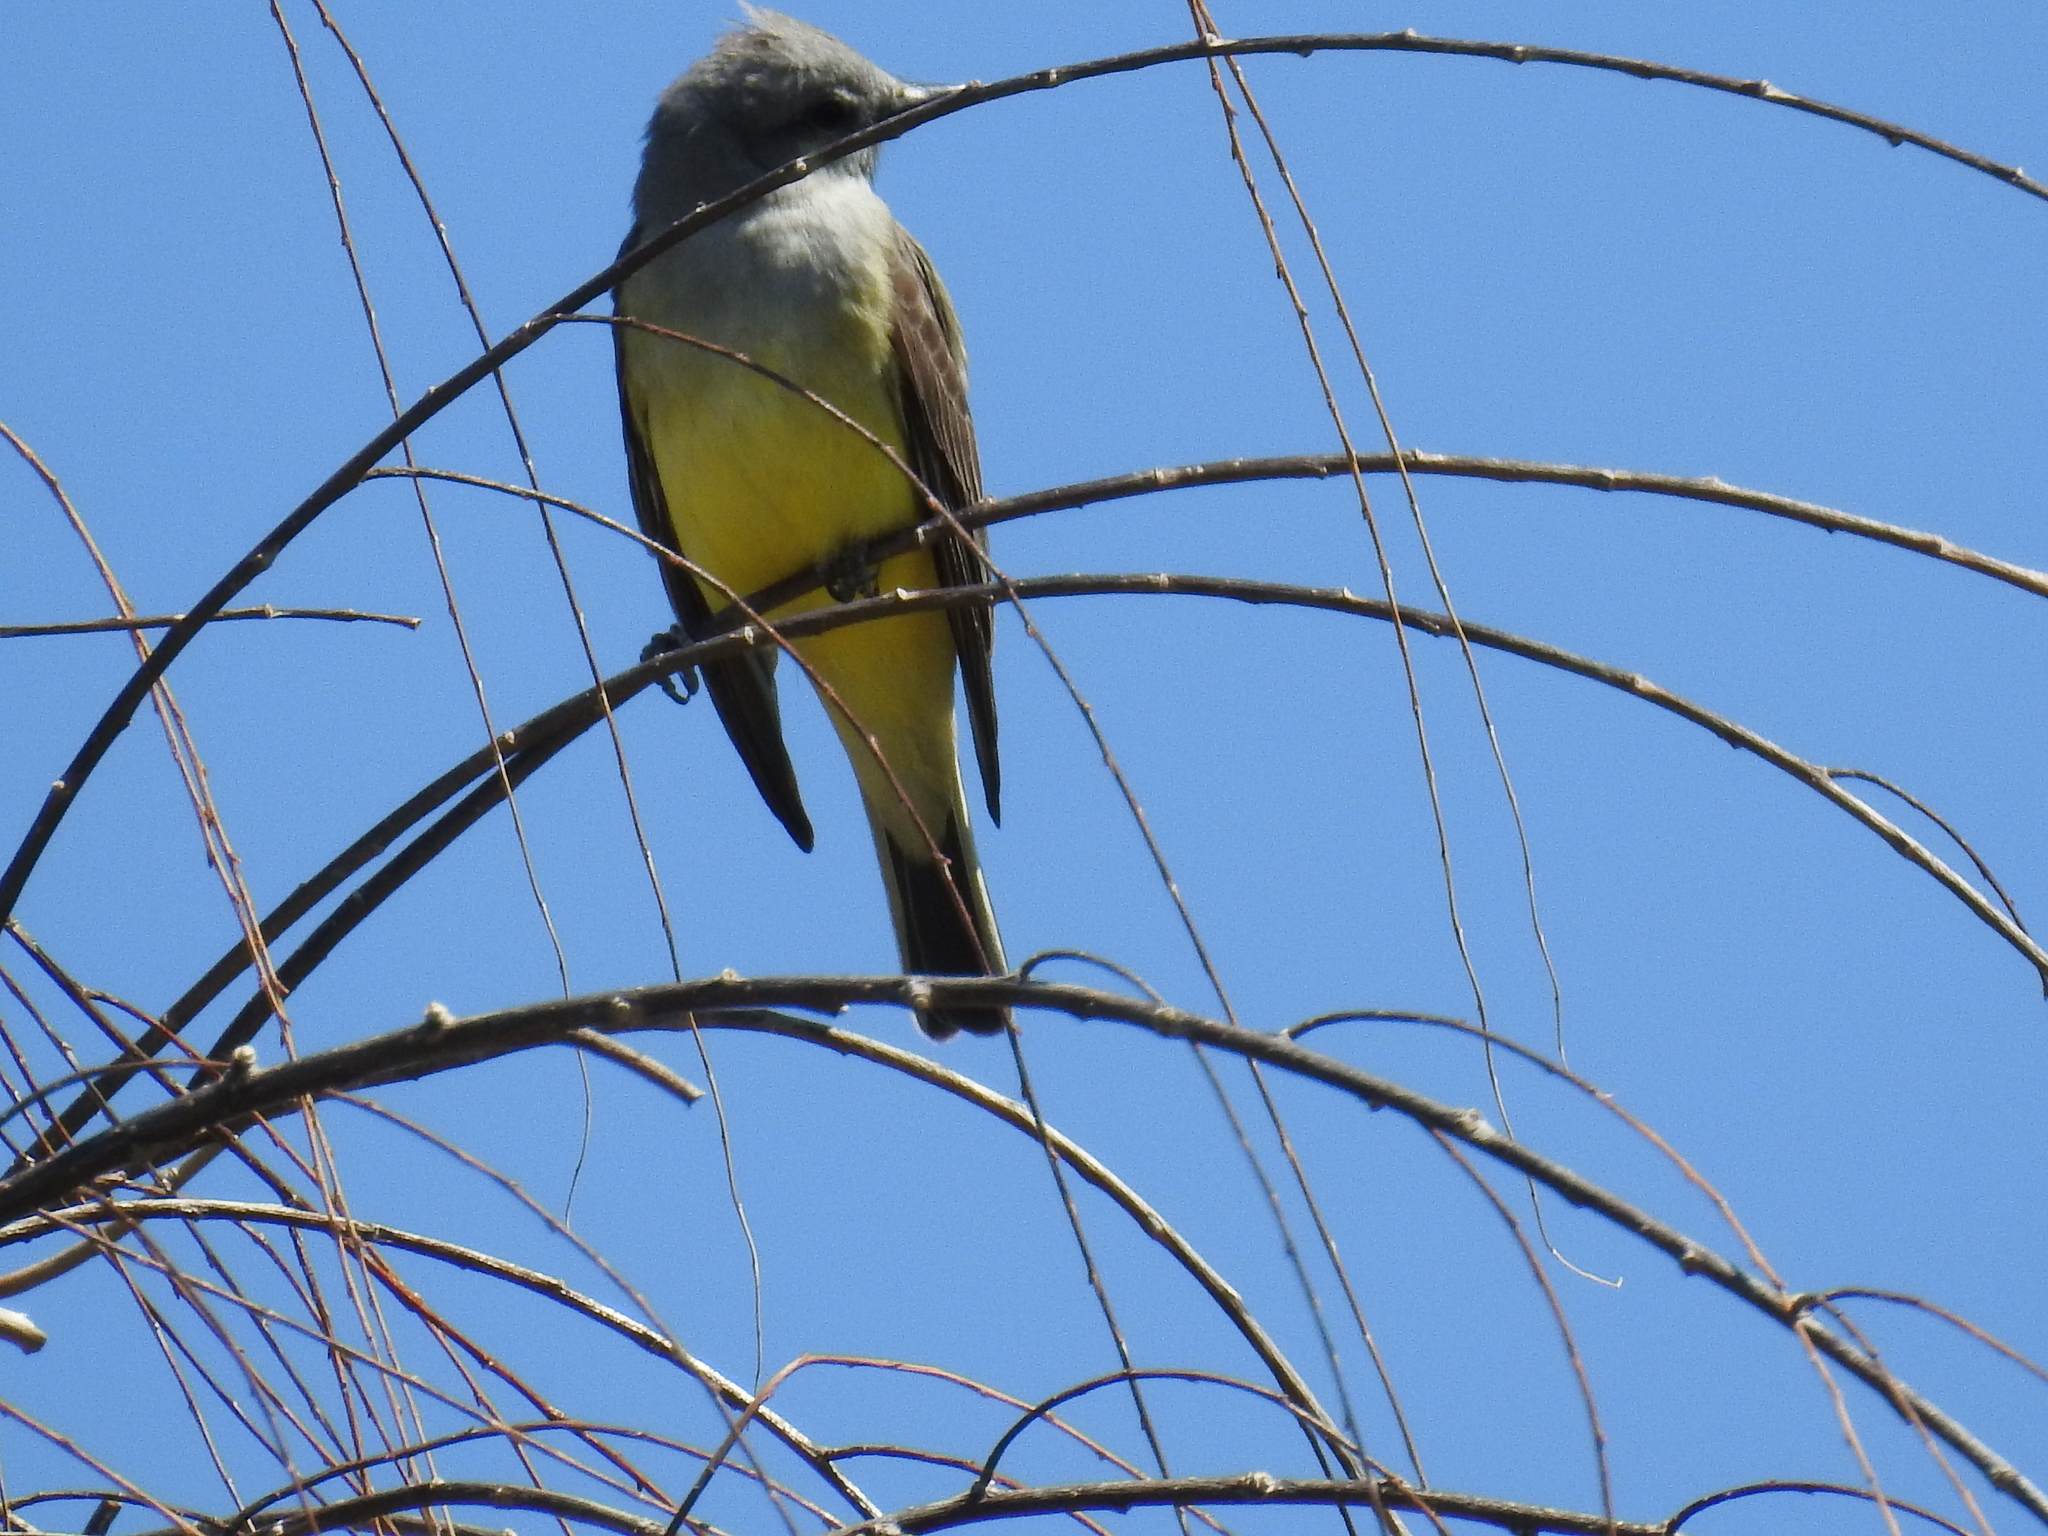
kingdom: Animalia
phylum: Chordata
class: Aves
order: Passeriformes
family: Tyrannidae
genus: Tyrannus
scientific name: Tyrannus verticalis
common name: Western kingbird
